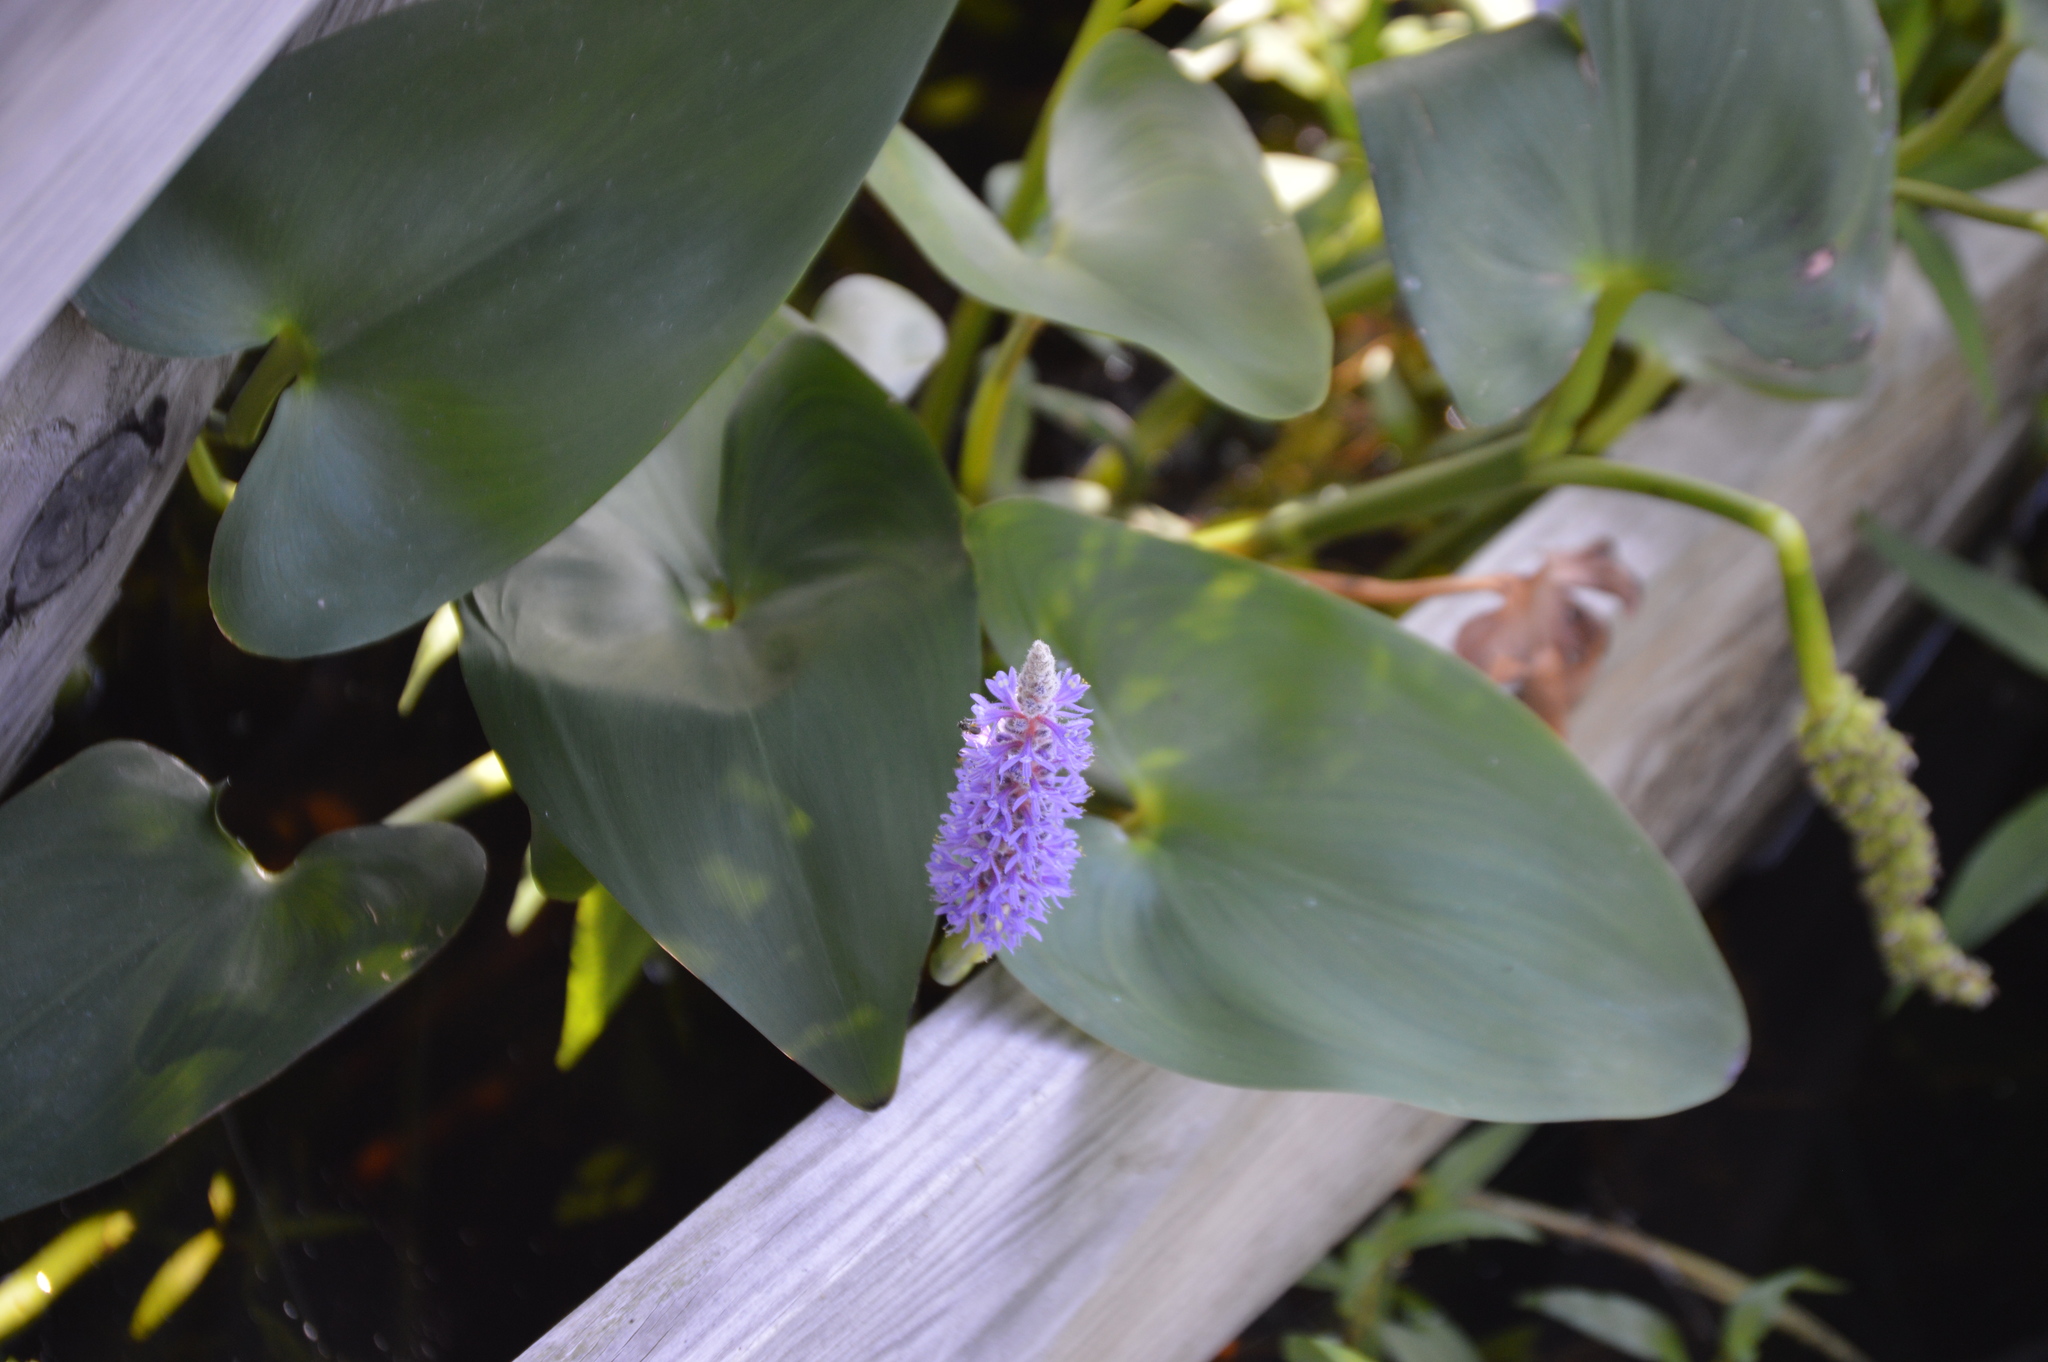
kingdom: Plantae
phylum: Tracheophyta
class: Liliopsida
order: Commelinales
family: Pontederiaceae
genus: Pontederia
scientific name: Pontederia cordata
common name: Pickerelweed
